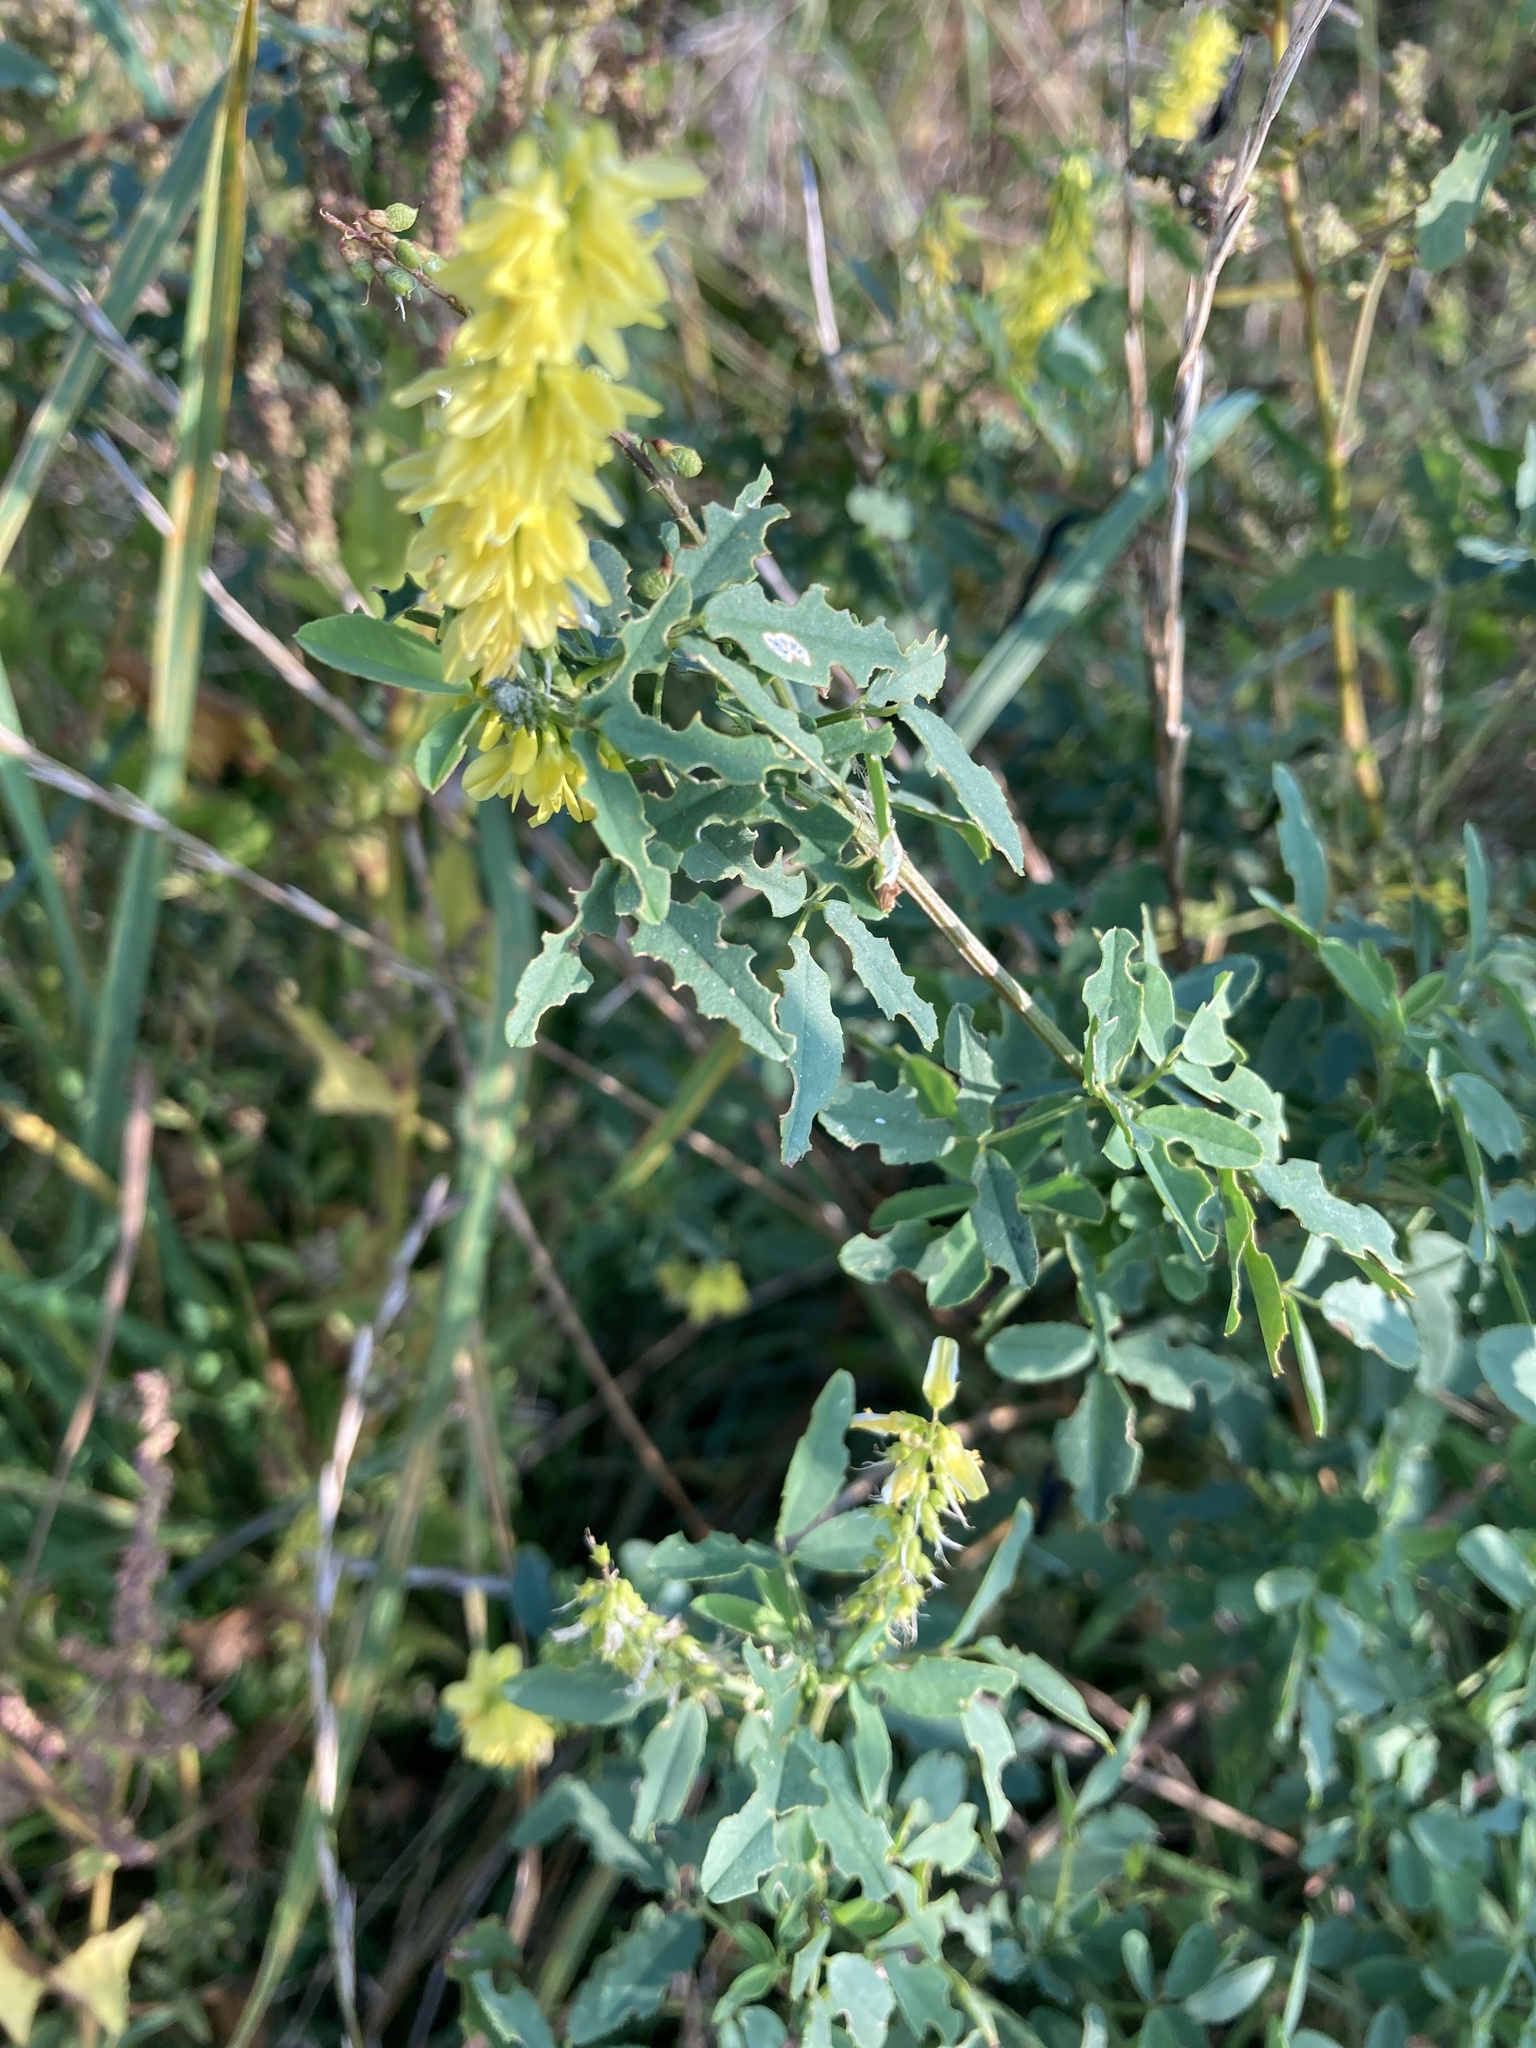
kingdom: Plantae
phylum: Tracheophyta
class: Magnoliopsida
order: Fabales
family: Fabaceae
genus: Melilotus
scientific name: Melilotus officinalis
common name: Sweetclover
